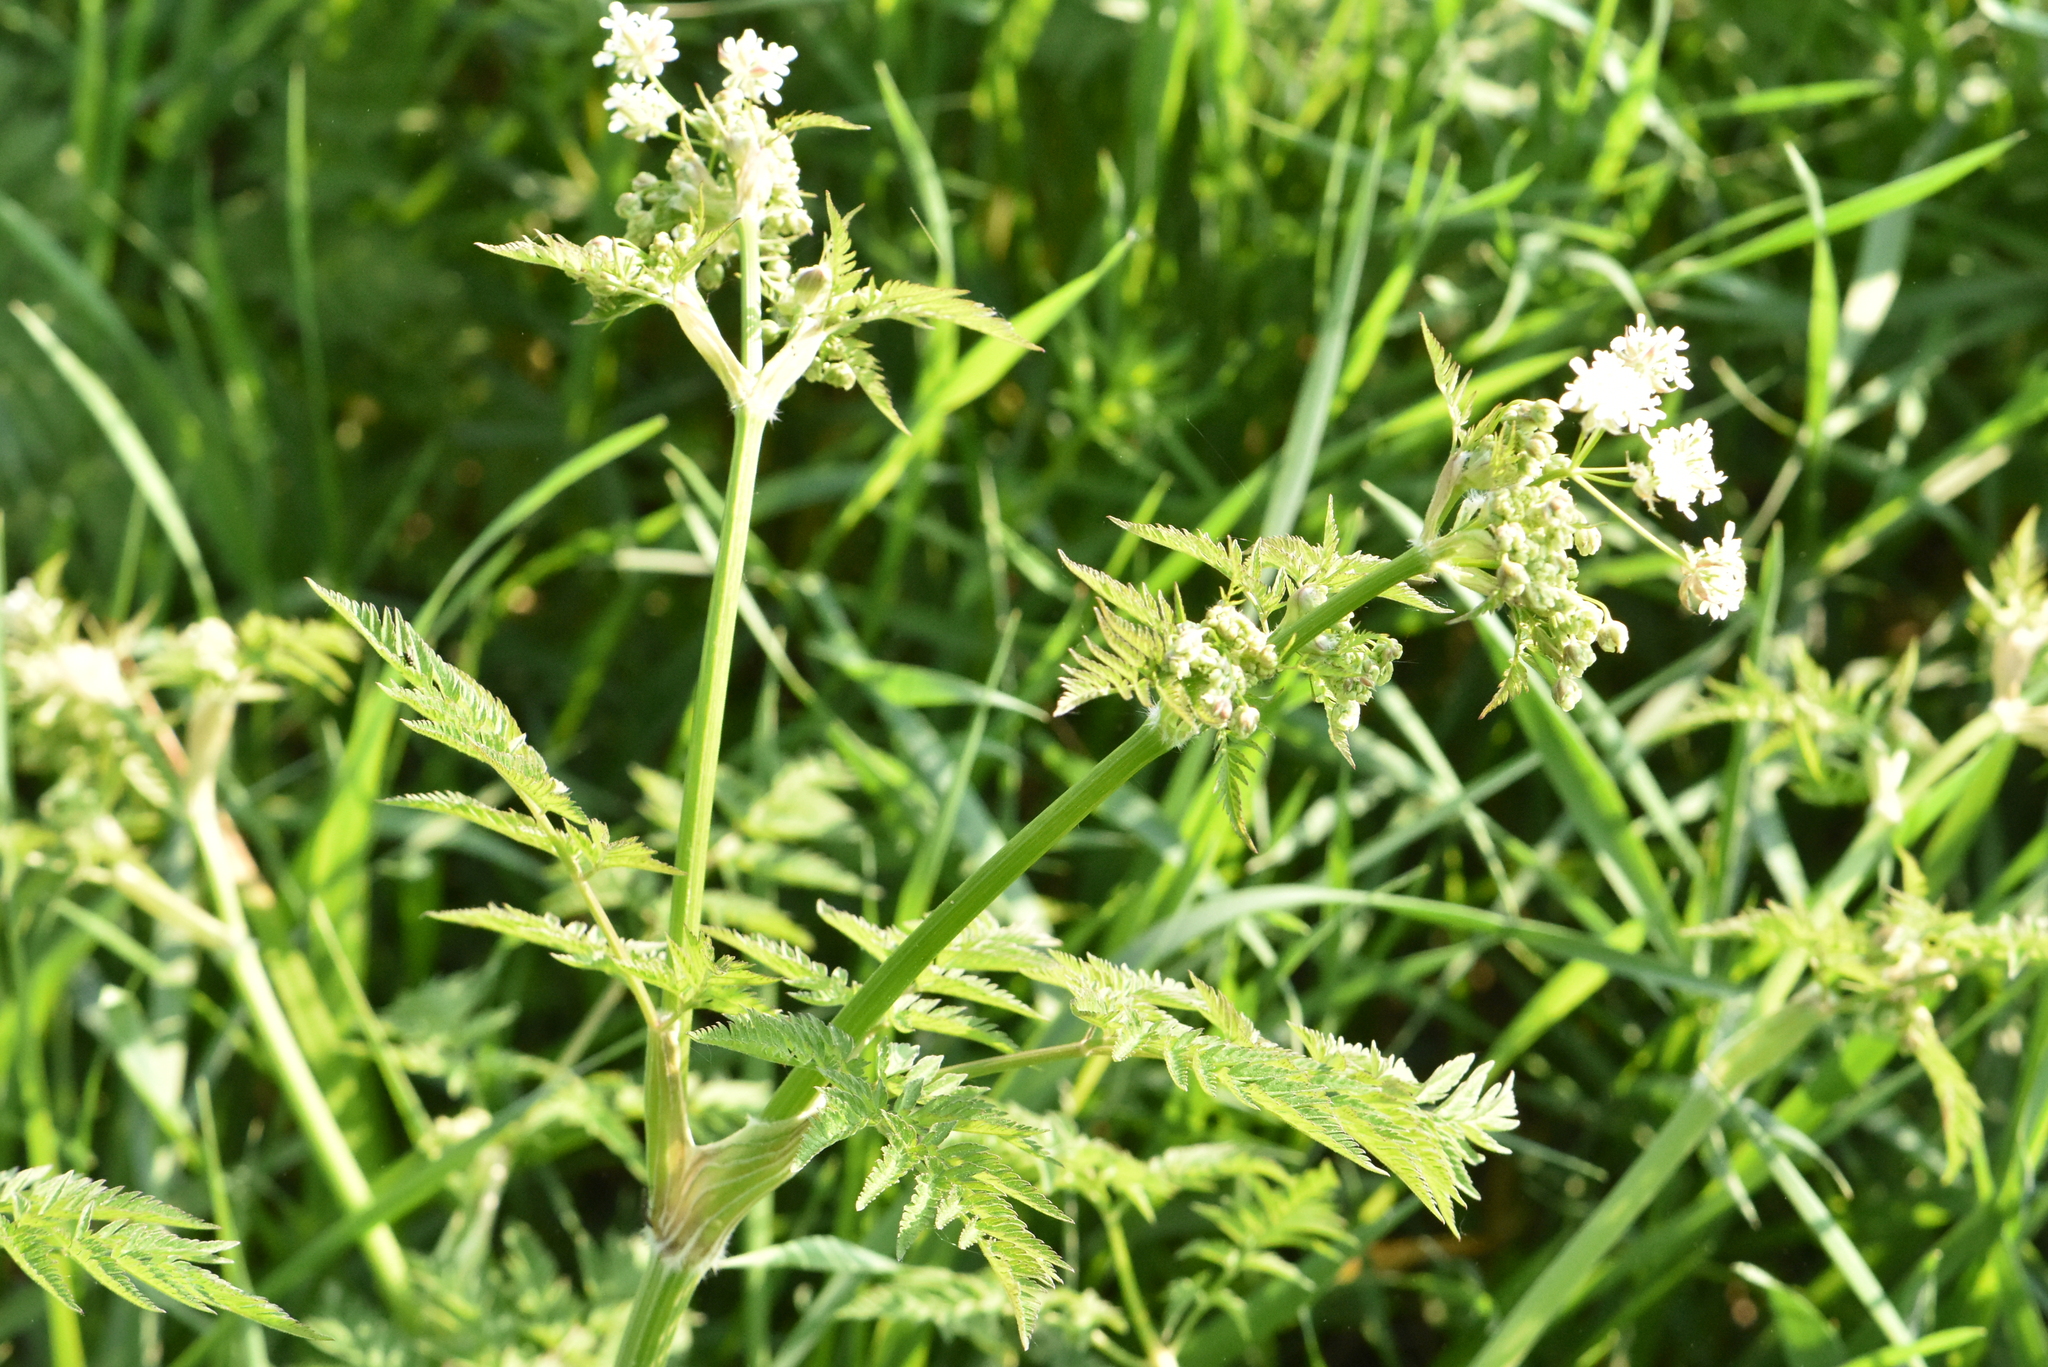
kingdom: Plantae
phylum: Tracheophyta
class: Magnoliopsida
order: Apiales
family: Apiaceae
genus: Anthriscus
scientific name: Anthriscus sylvestris
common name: Cow parsley
